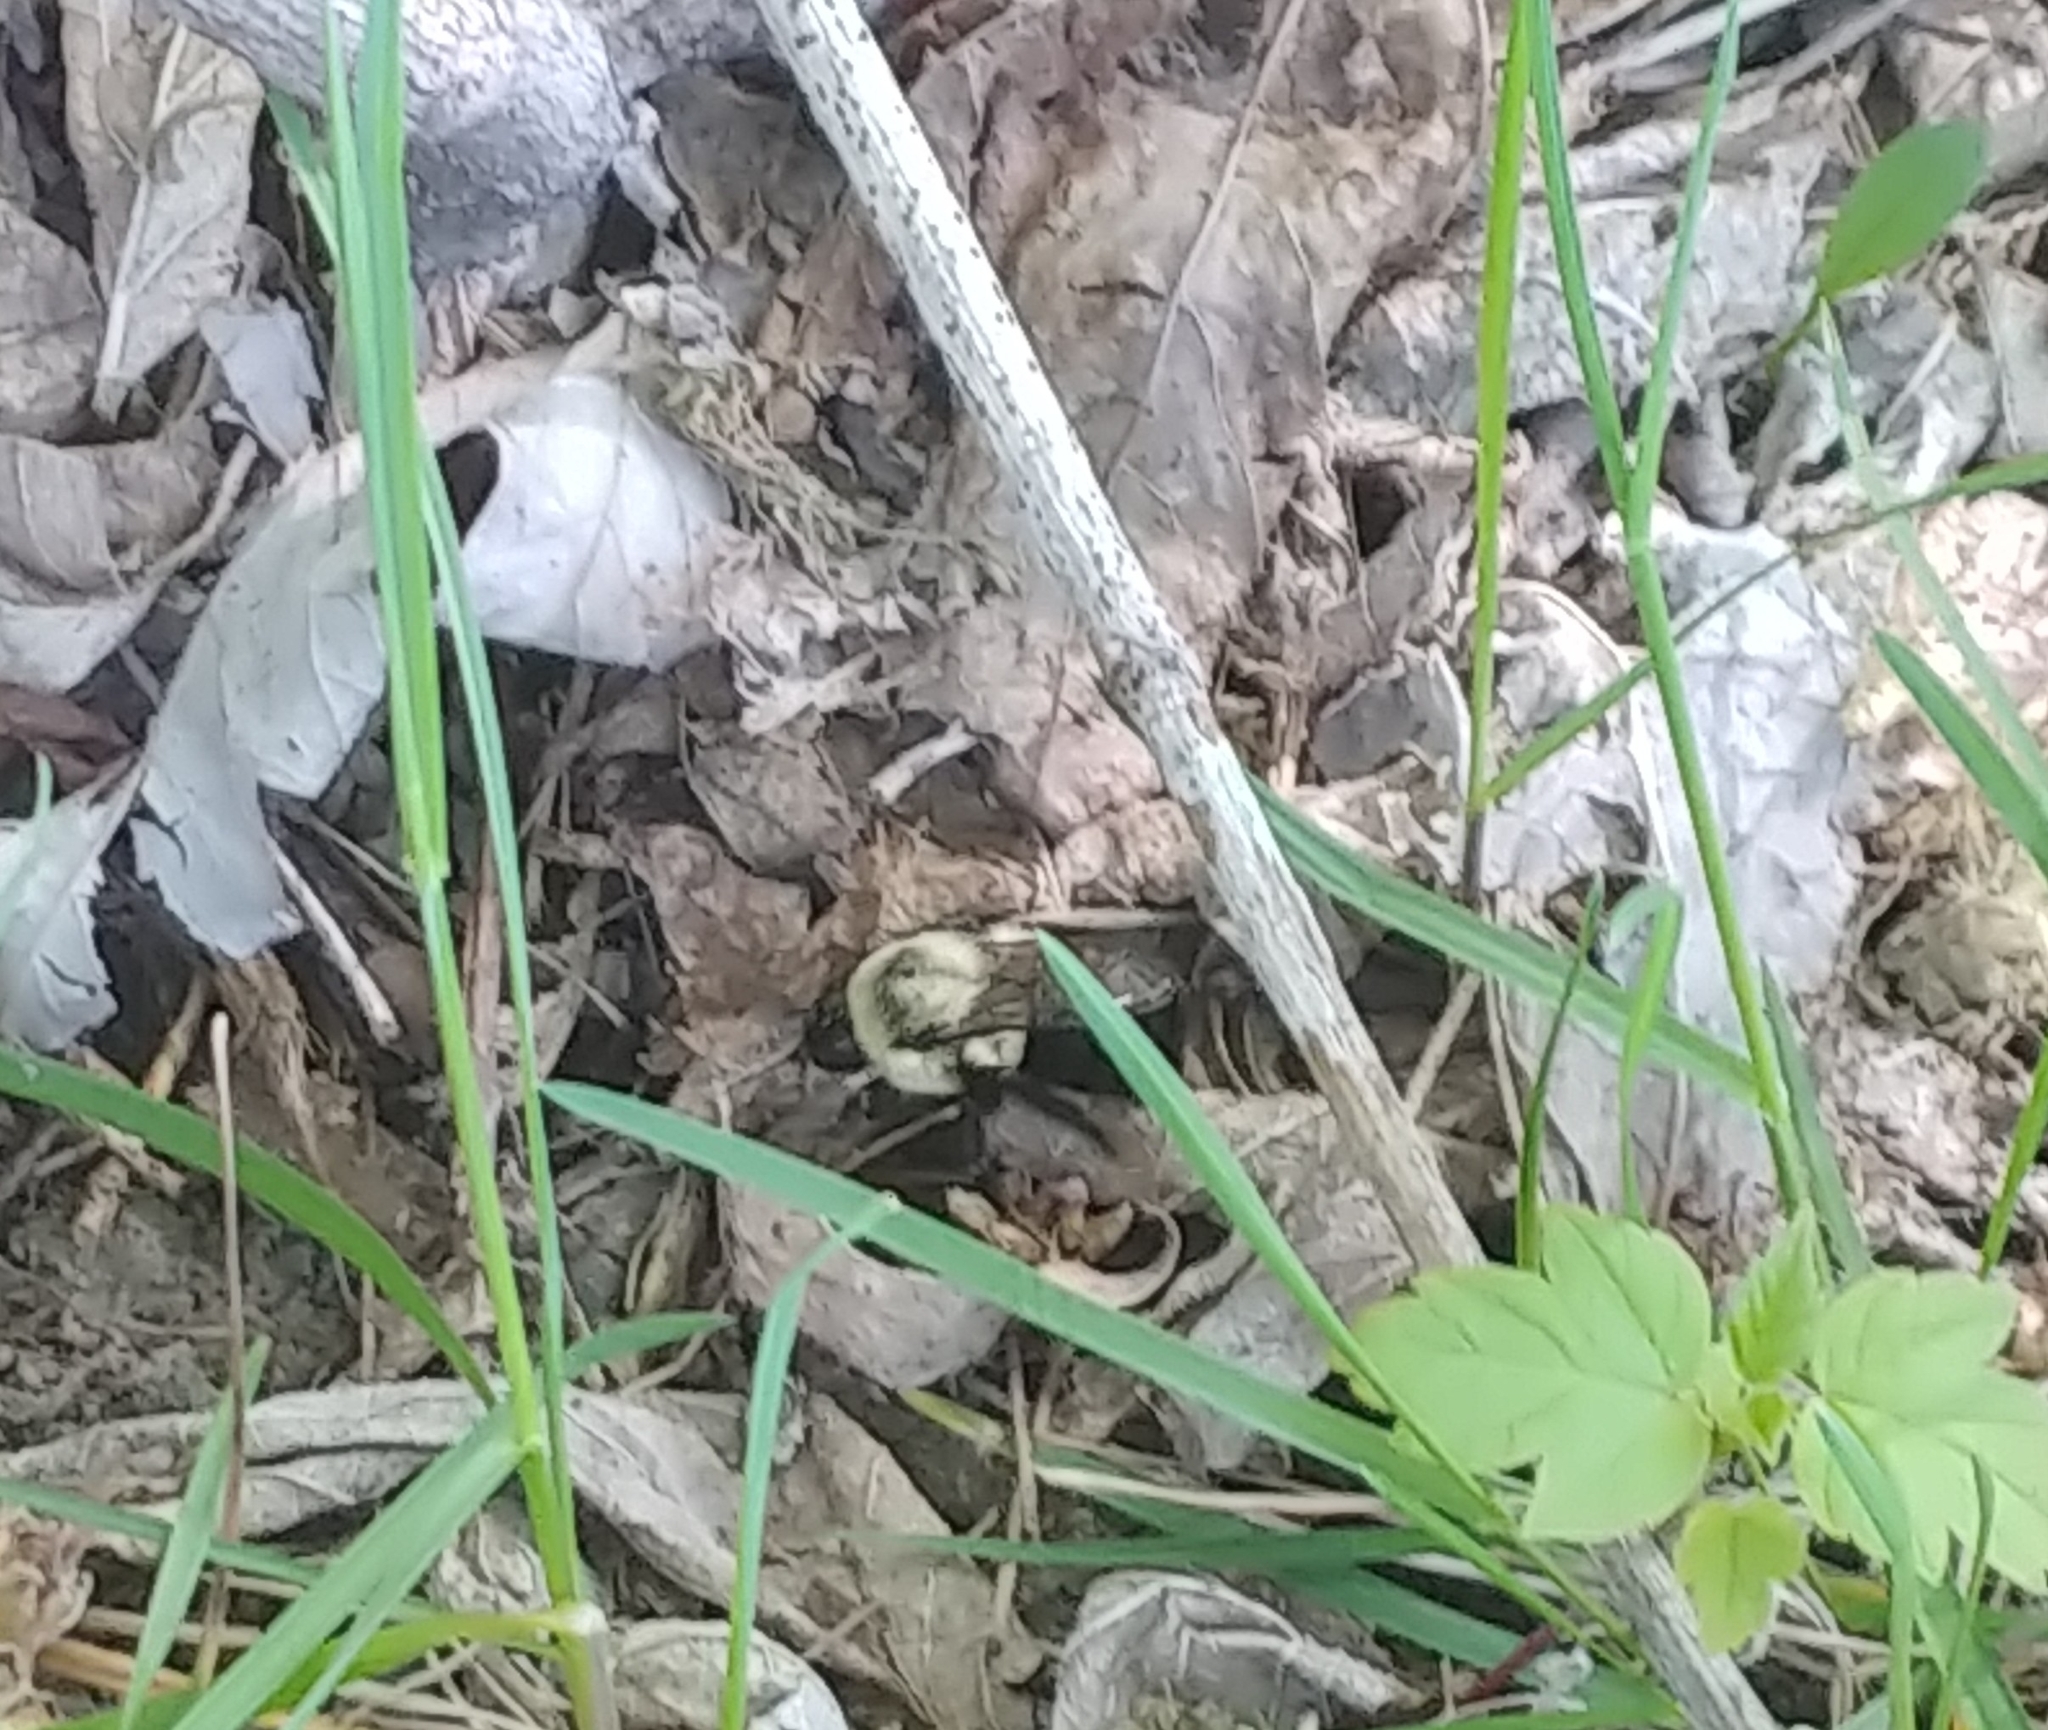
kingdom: Animalia
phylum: Arthropoda
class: Insecta
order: Hymenoptera
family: Apidae
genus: Bombus
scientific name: Bombus impatiens
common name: Common eastern bumble bee
